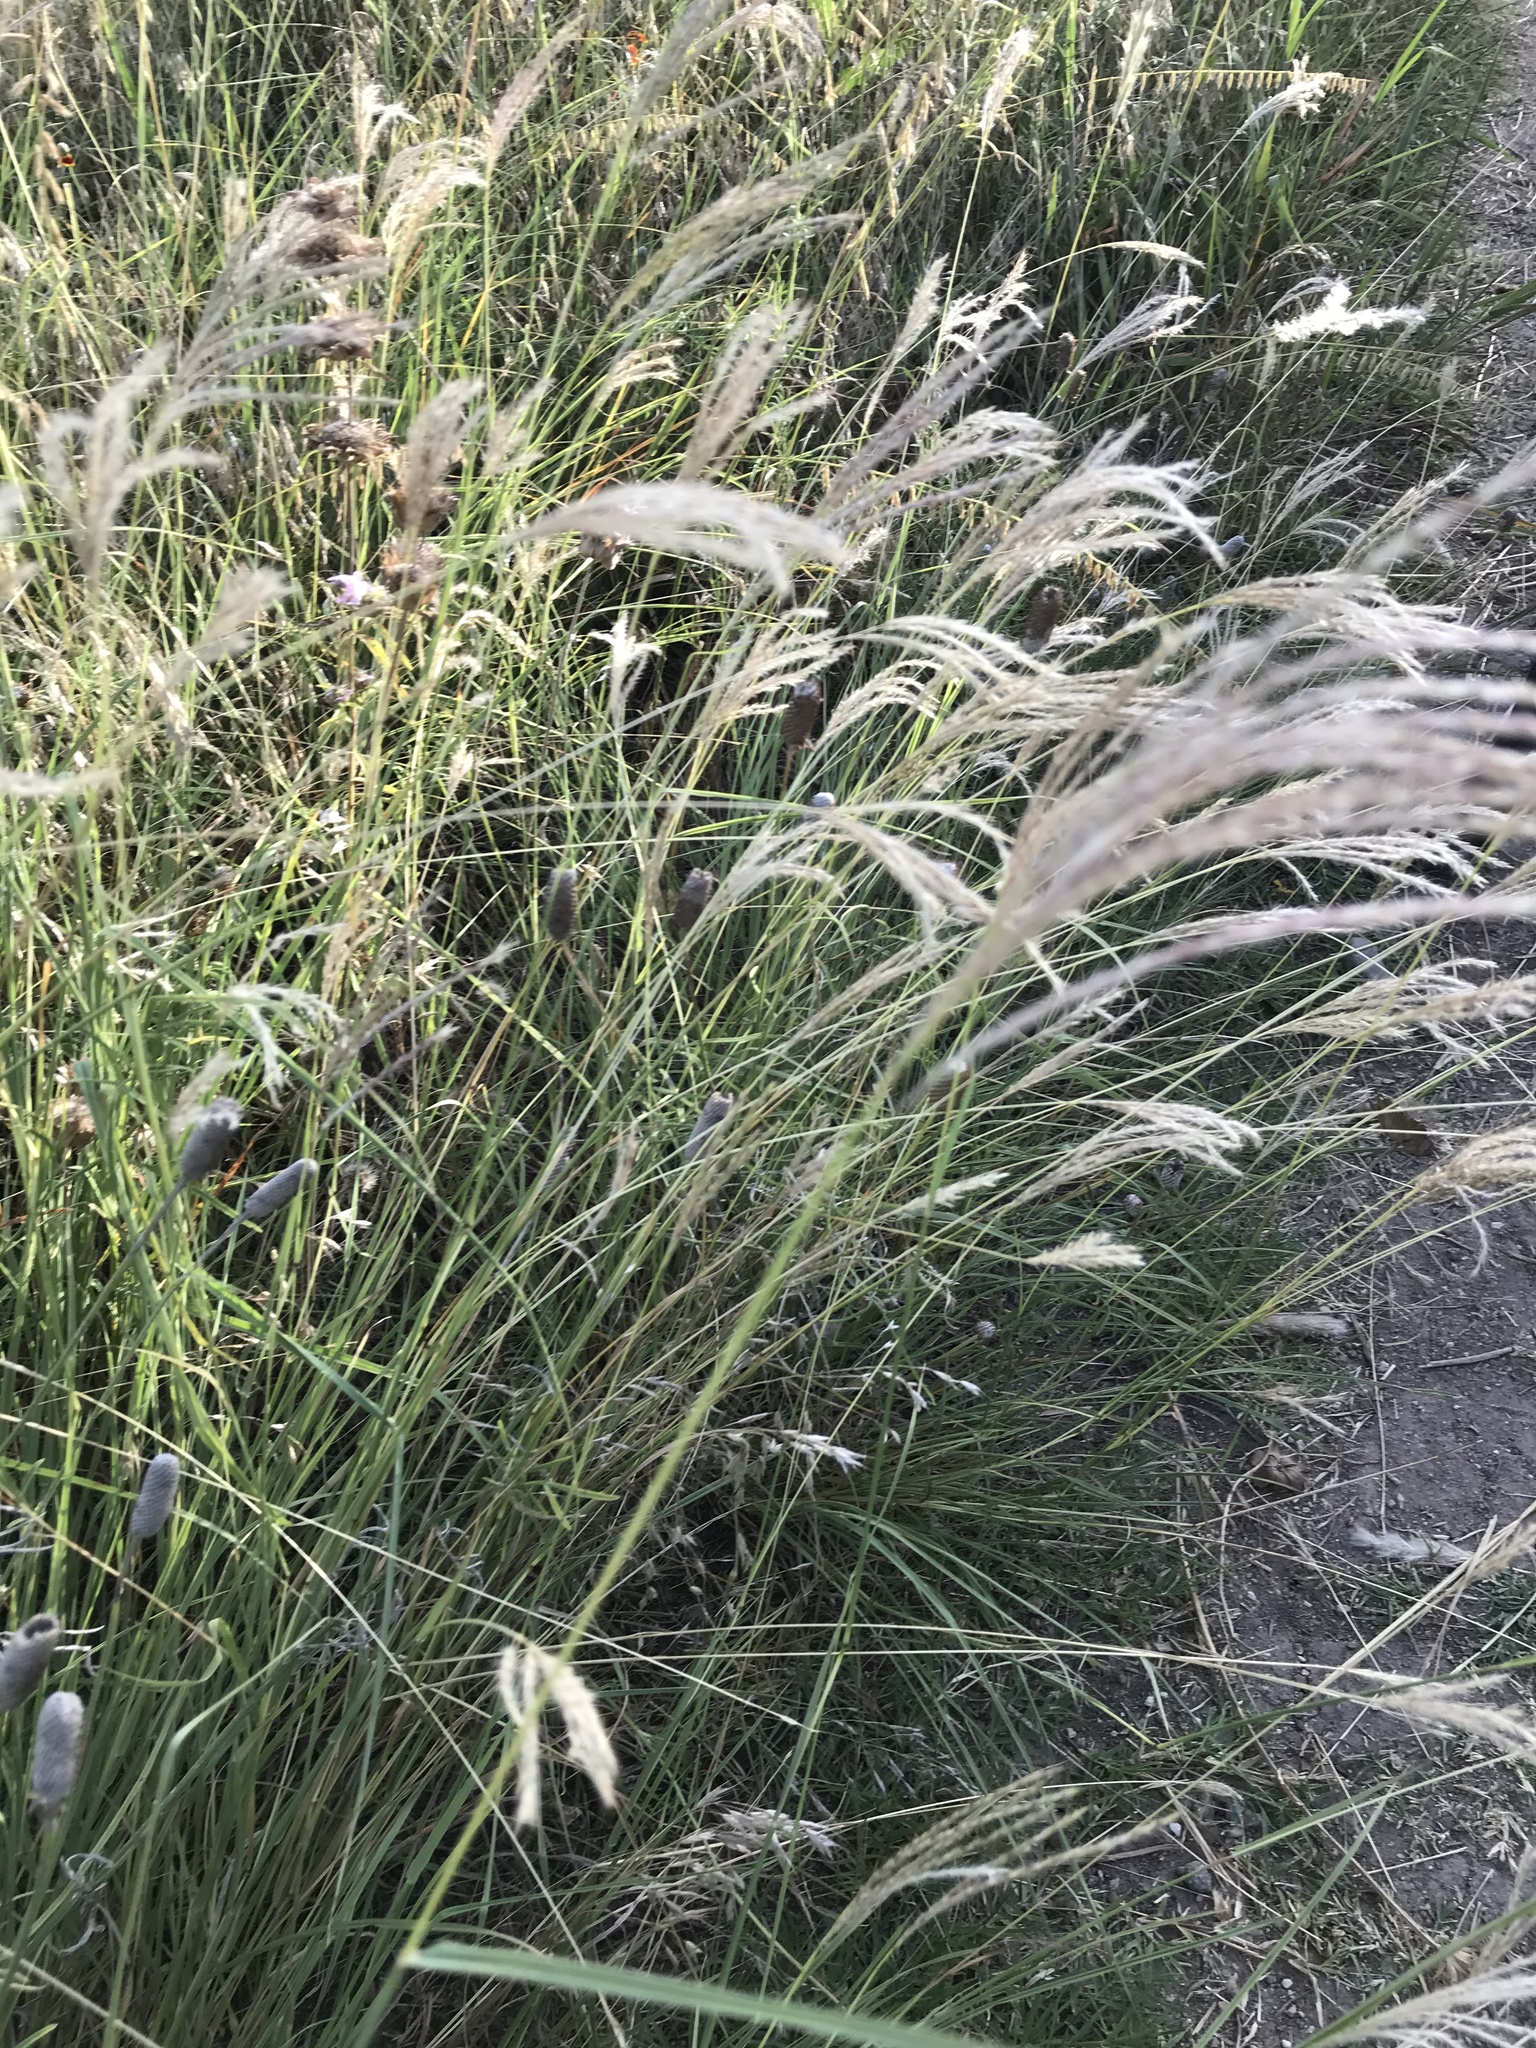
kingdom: Plantae
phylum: Tracheophyta
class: Liliopsida
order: Poales
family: Poaceae
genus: Bothriochloa
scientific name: Bothriochloa ischaemum
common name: Yellow bluestem
